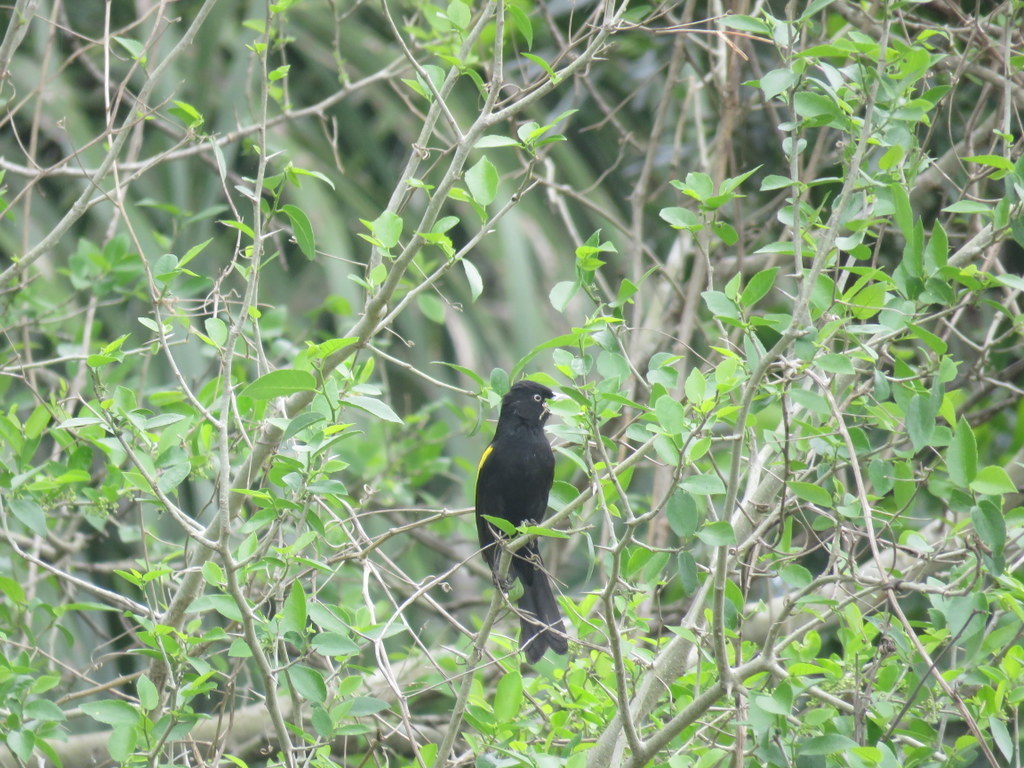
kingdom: Animalia
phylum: Chordata
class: Aves
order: Passeriformes
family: Icteridae
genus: Cacicus
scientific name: Cacicus chrysopterus
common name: Golden-winged cacique
